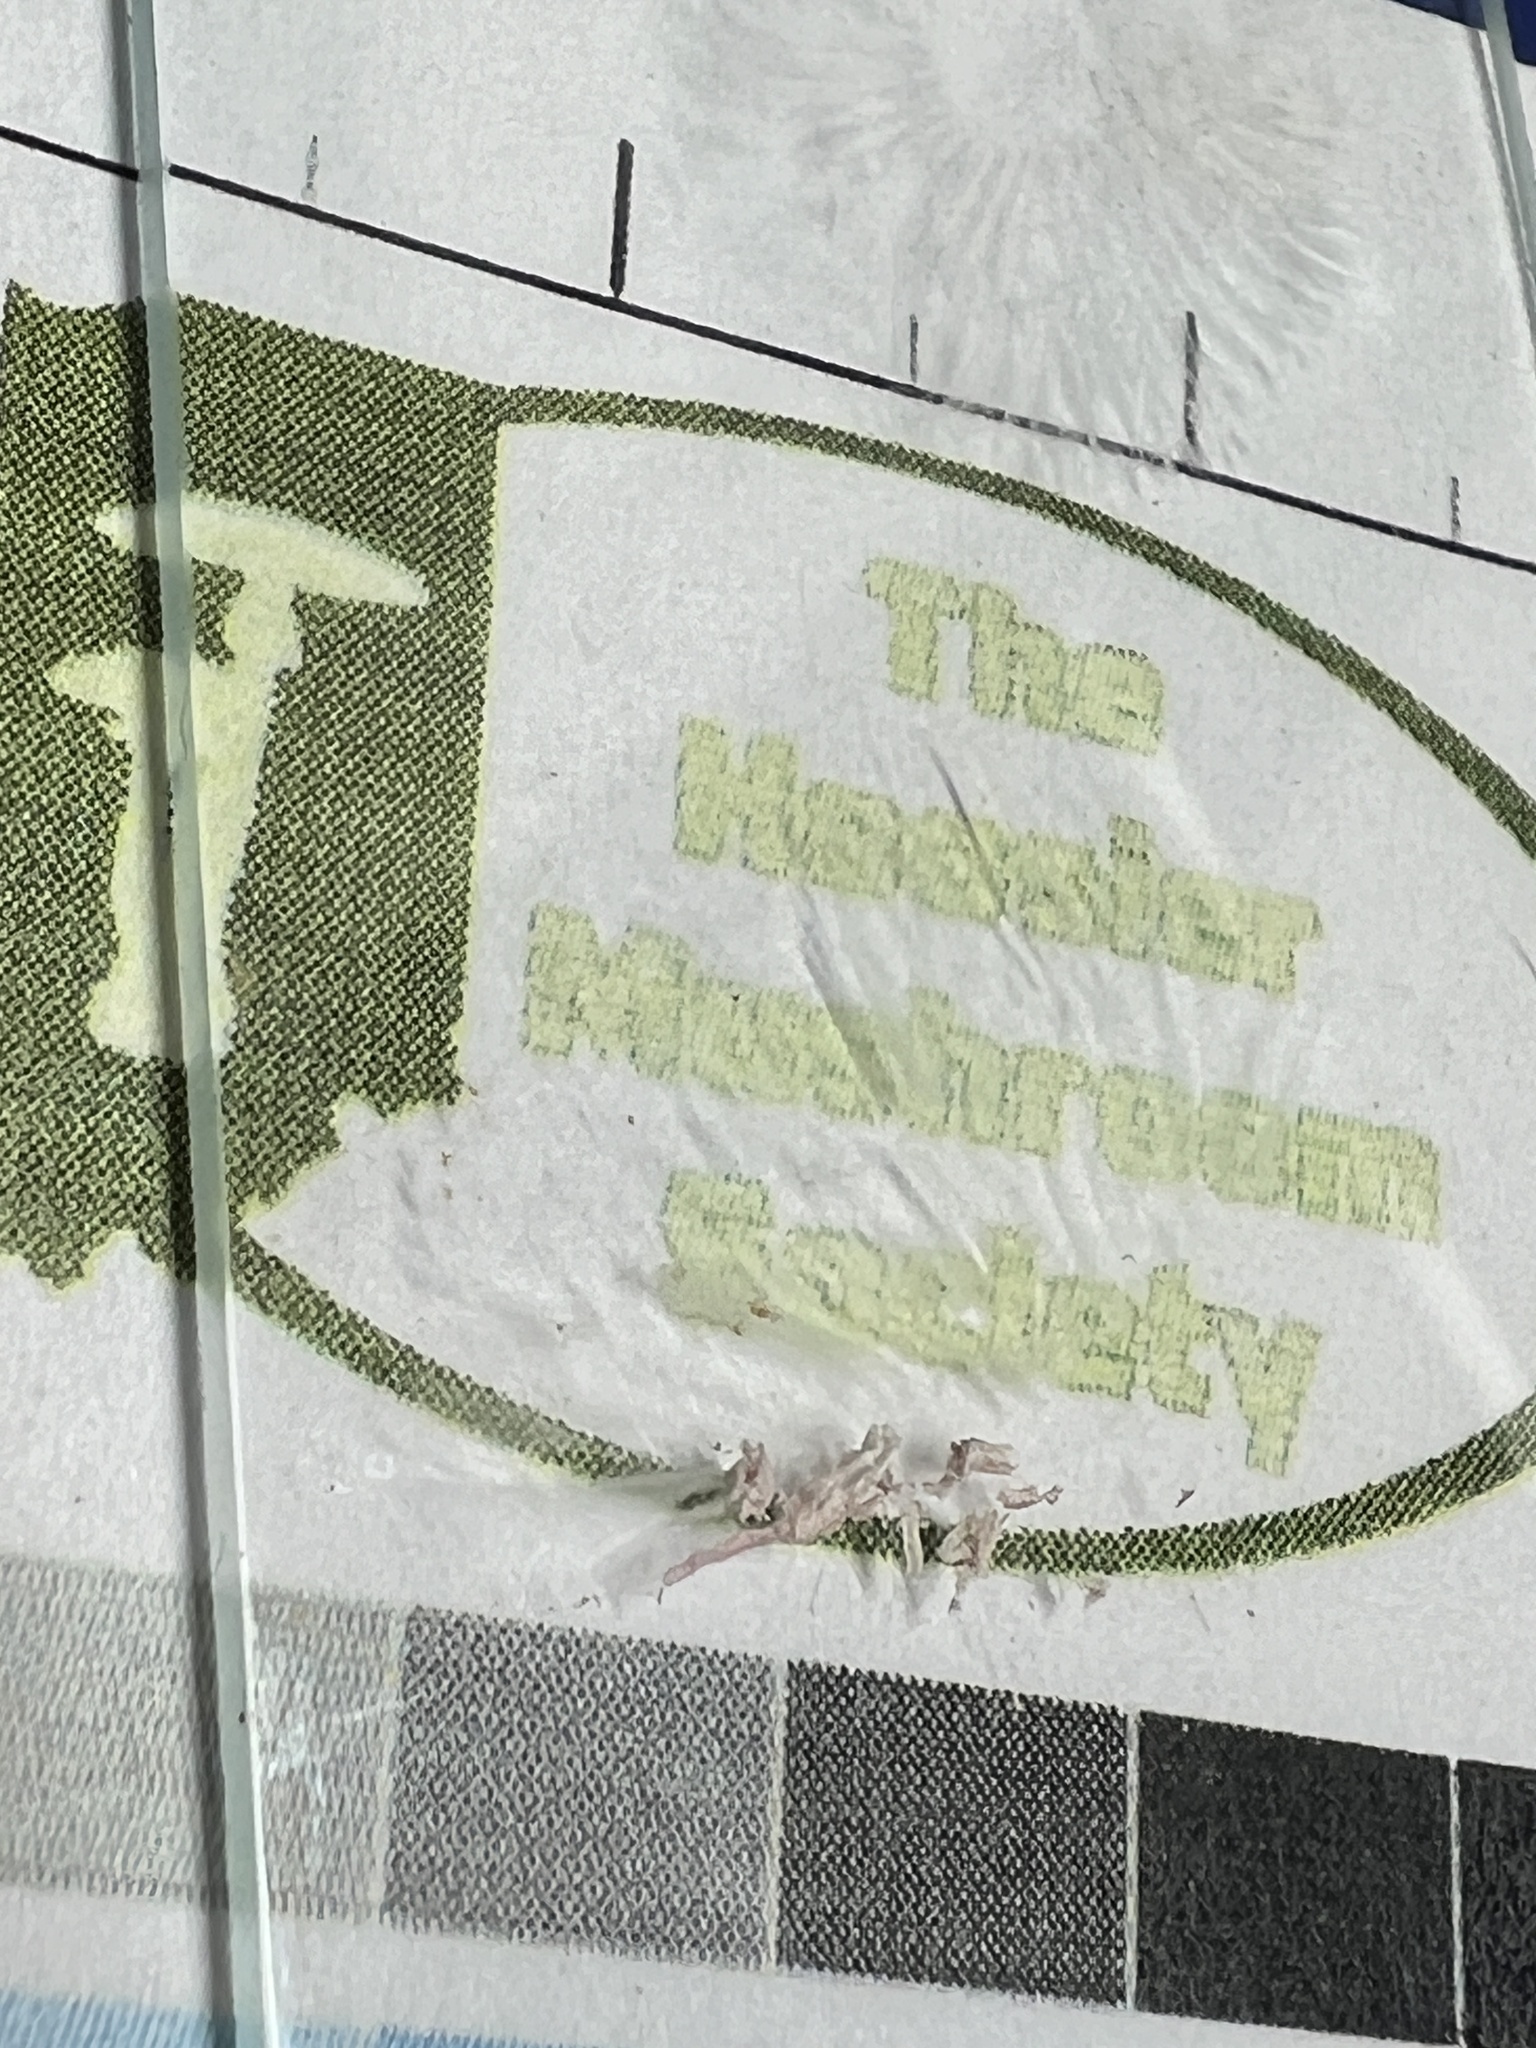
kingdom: Fungi
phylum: Basidiomycota
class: Agaricomycetes
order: Agaricales
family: Agaricaceae
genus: Lepiota
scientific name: Lepiota maculans
